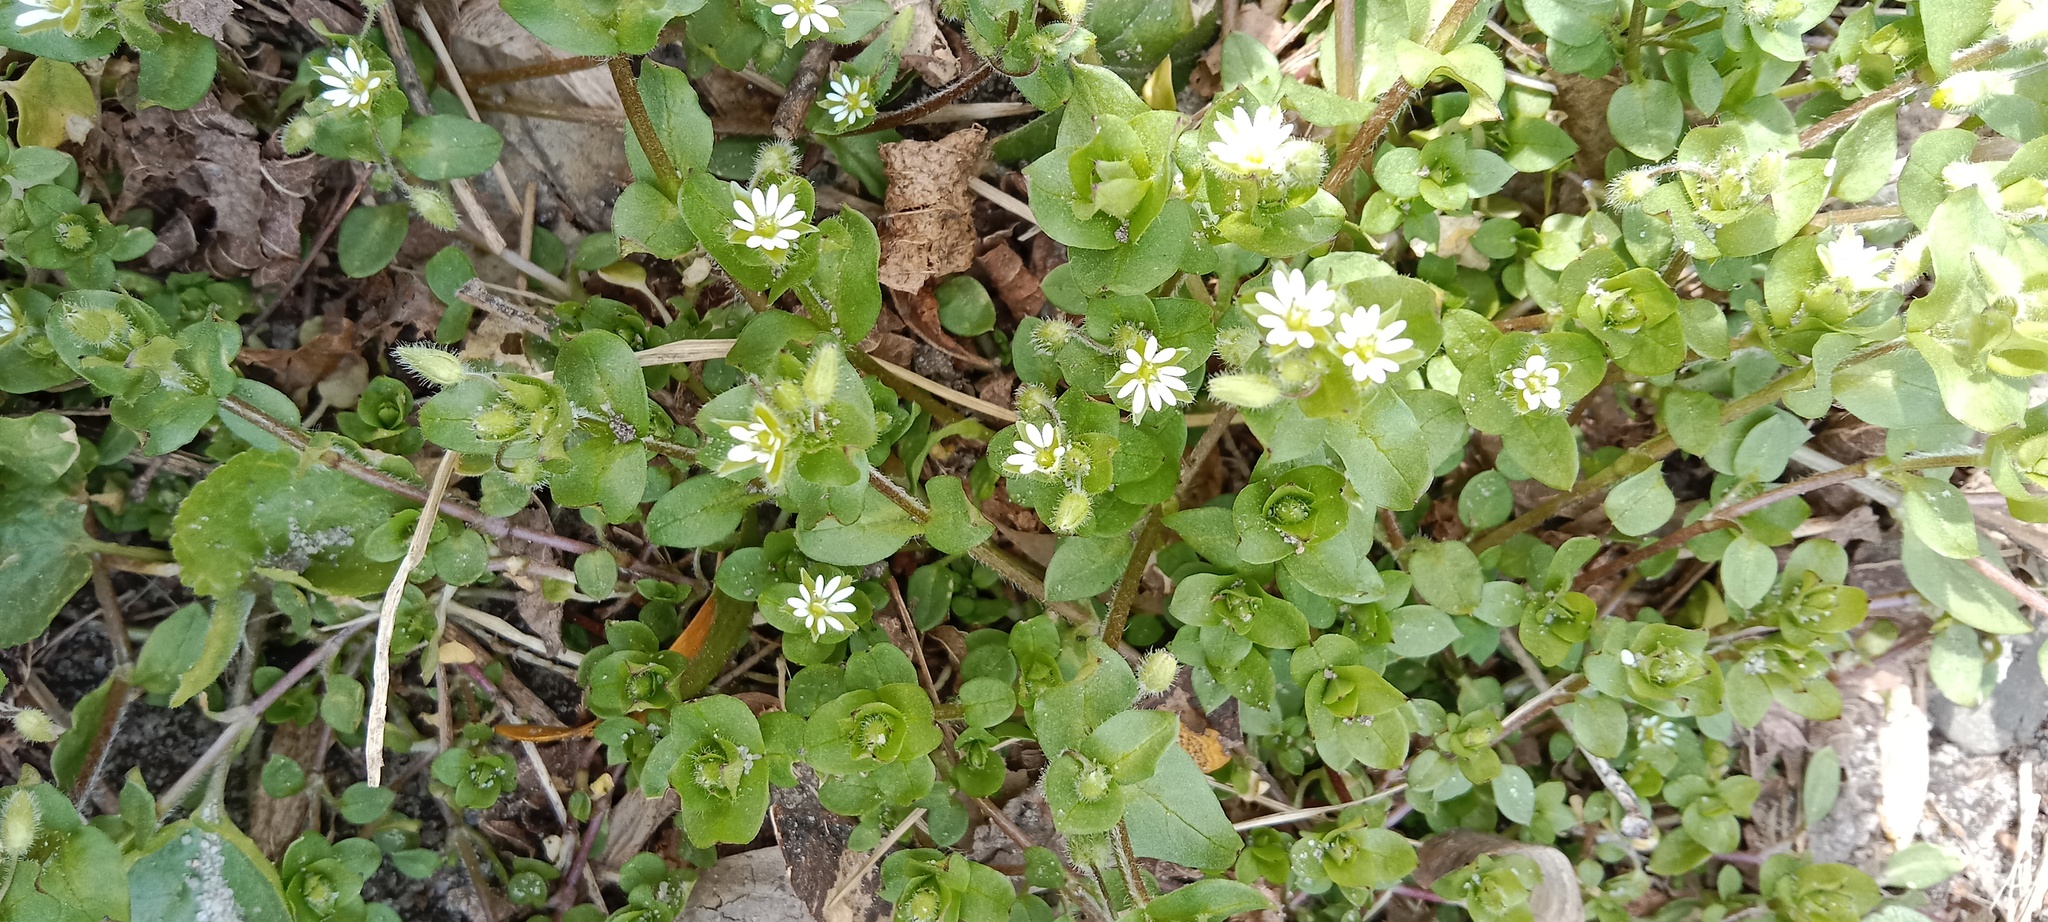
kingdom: Plantae
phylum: Tracheophyta
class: Magnoliopsida
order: Caryophyllales
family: Caryophyllaceae
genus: Stellaria
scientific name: Stellaria media
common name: Common chickweed
